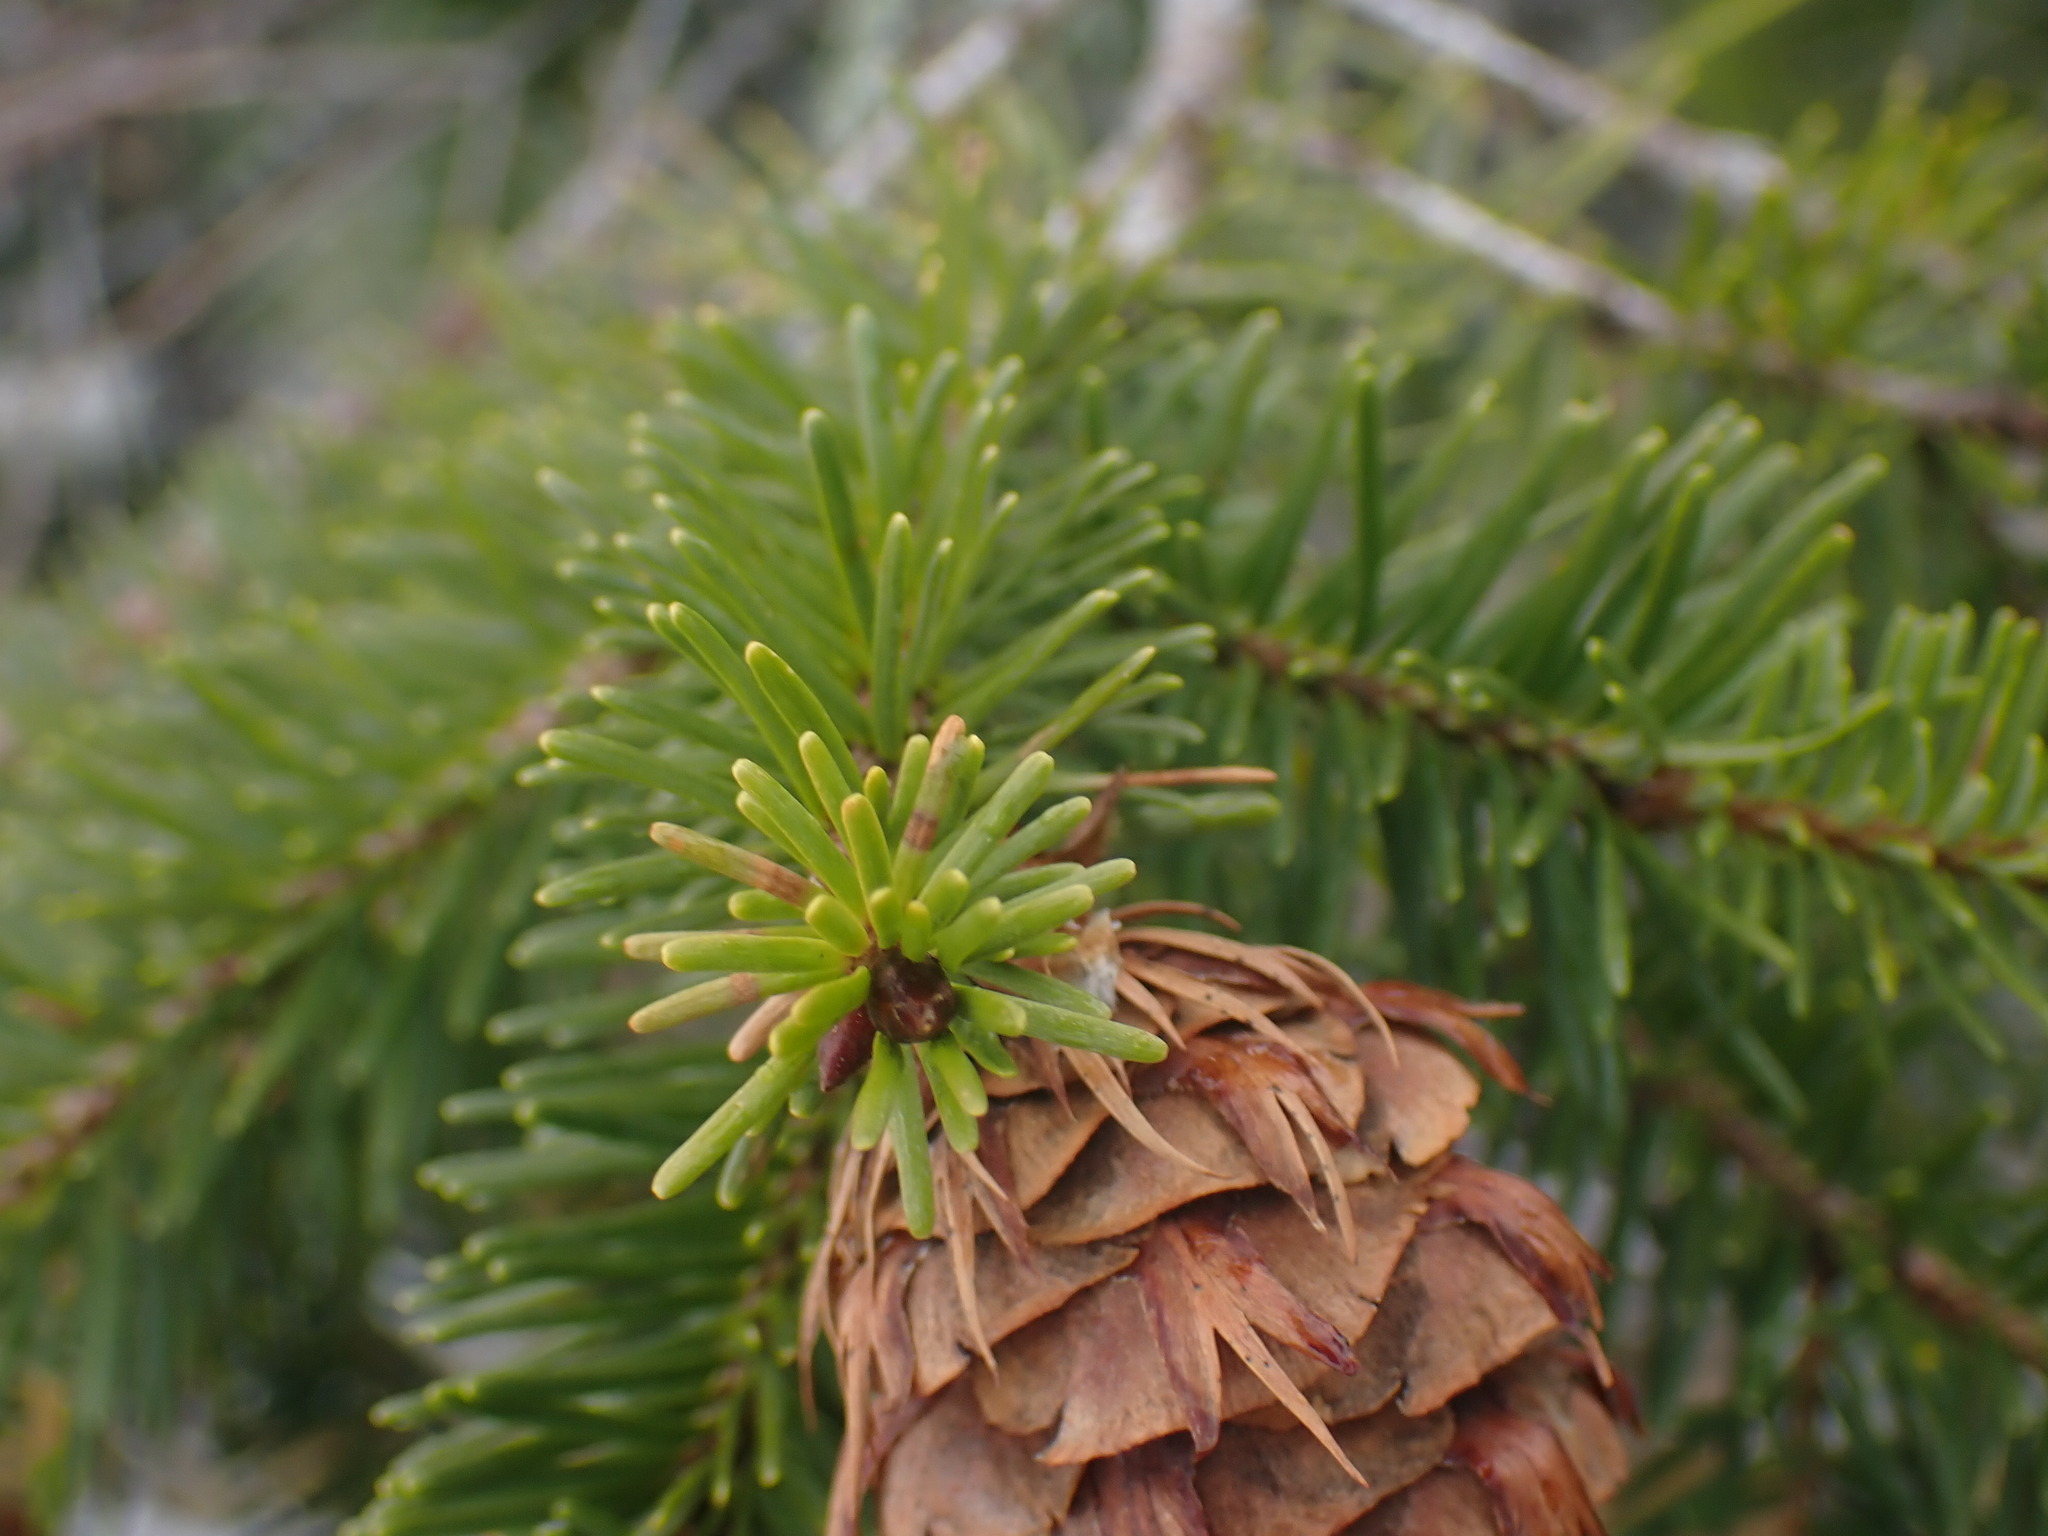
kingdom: Plantae
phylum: Tracheophyta
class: Pinopsida
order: Pinales
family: Pinaceae
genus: Pseudotsuga
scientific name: Pseudotsuga menziesii
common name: Douglas fir
